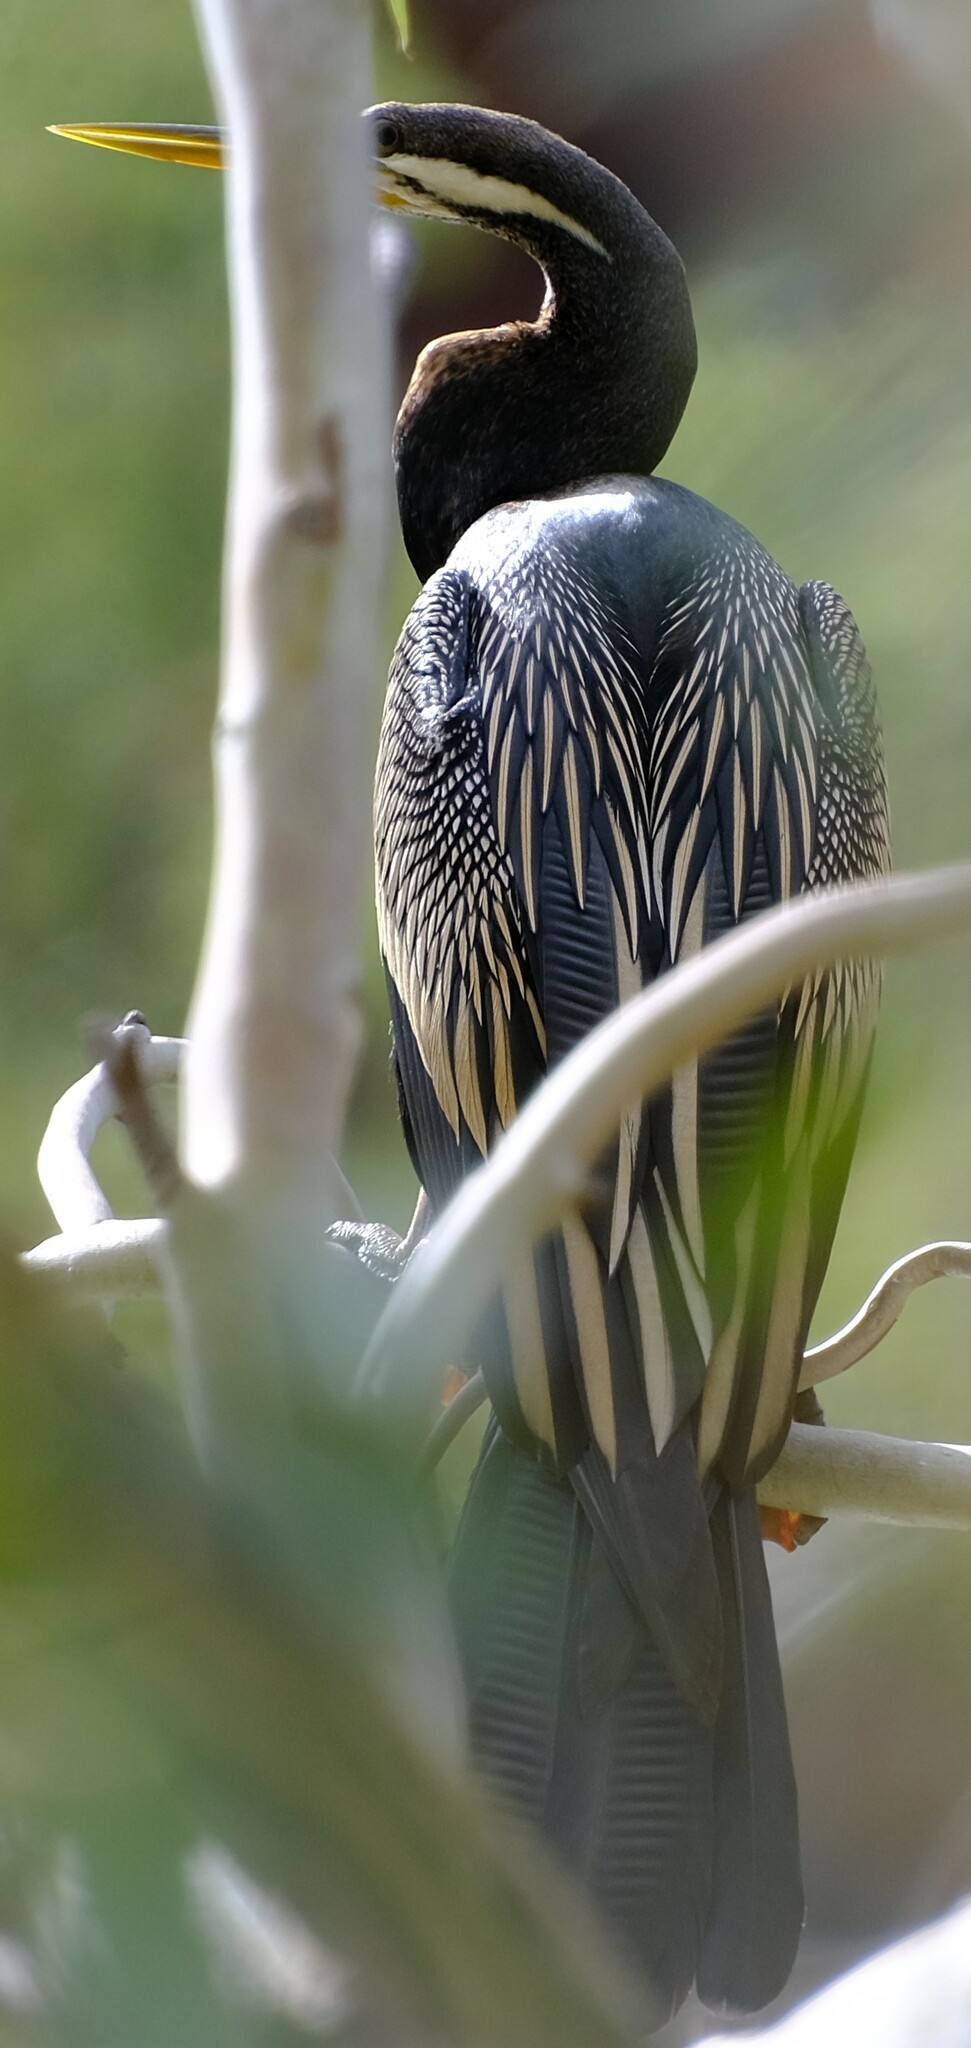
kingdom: Animalia
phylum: Chordata
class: Aves
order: Suliformes
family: Anhingidae
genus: Anhinga
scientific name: Anhinga novaehollandiae
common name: Australasian darter
